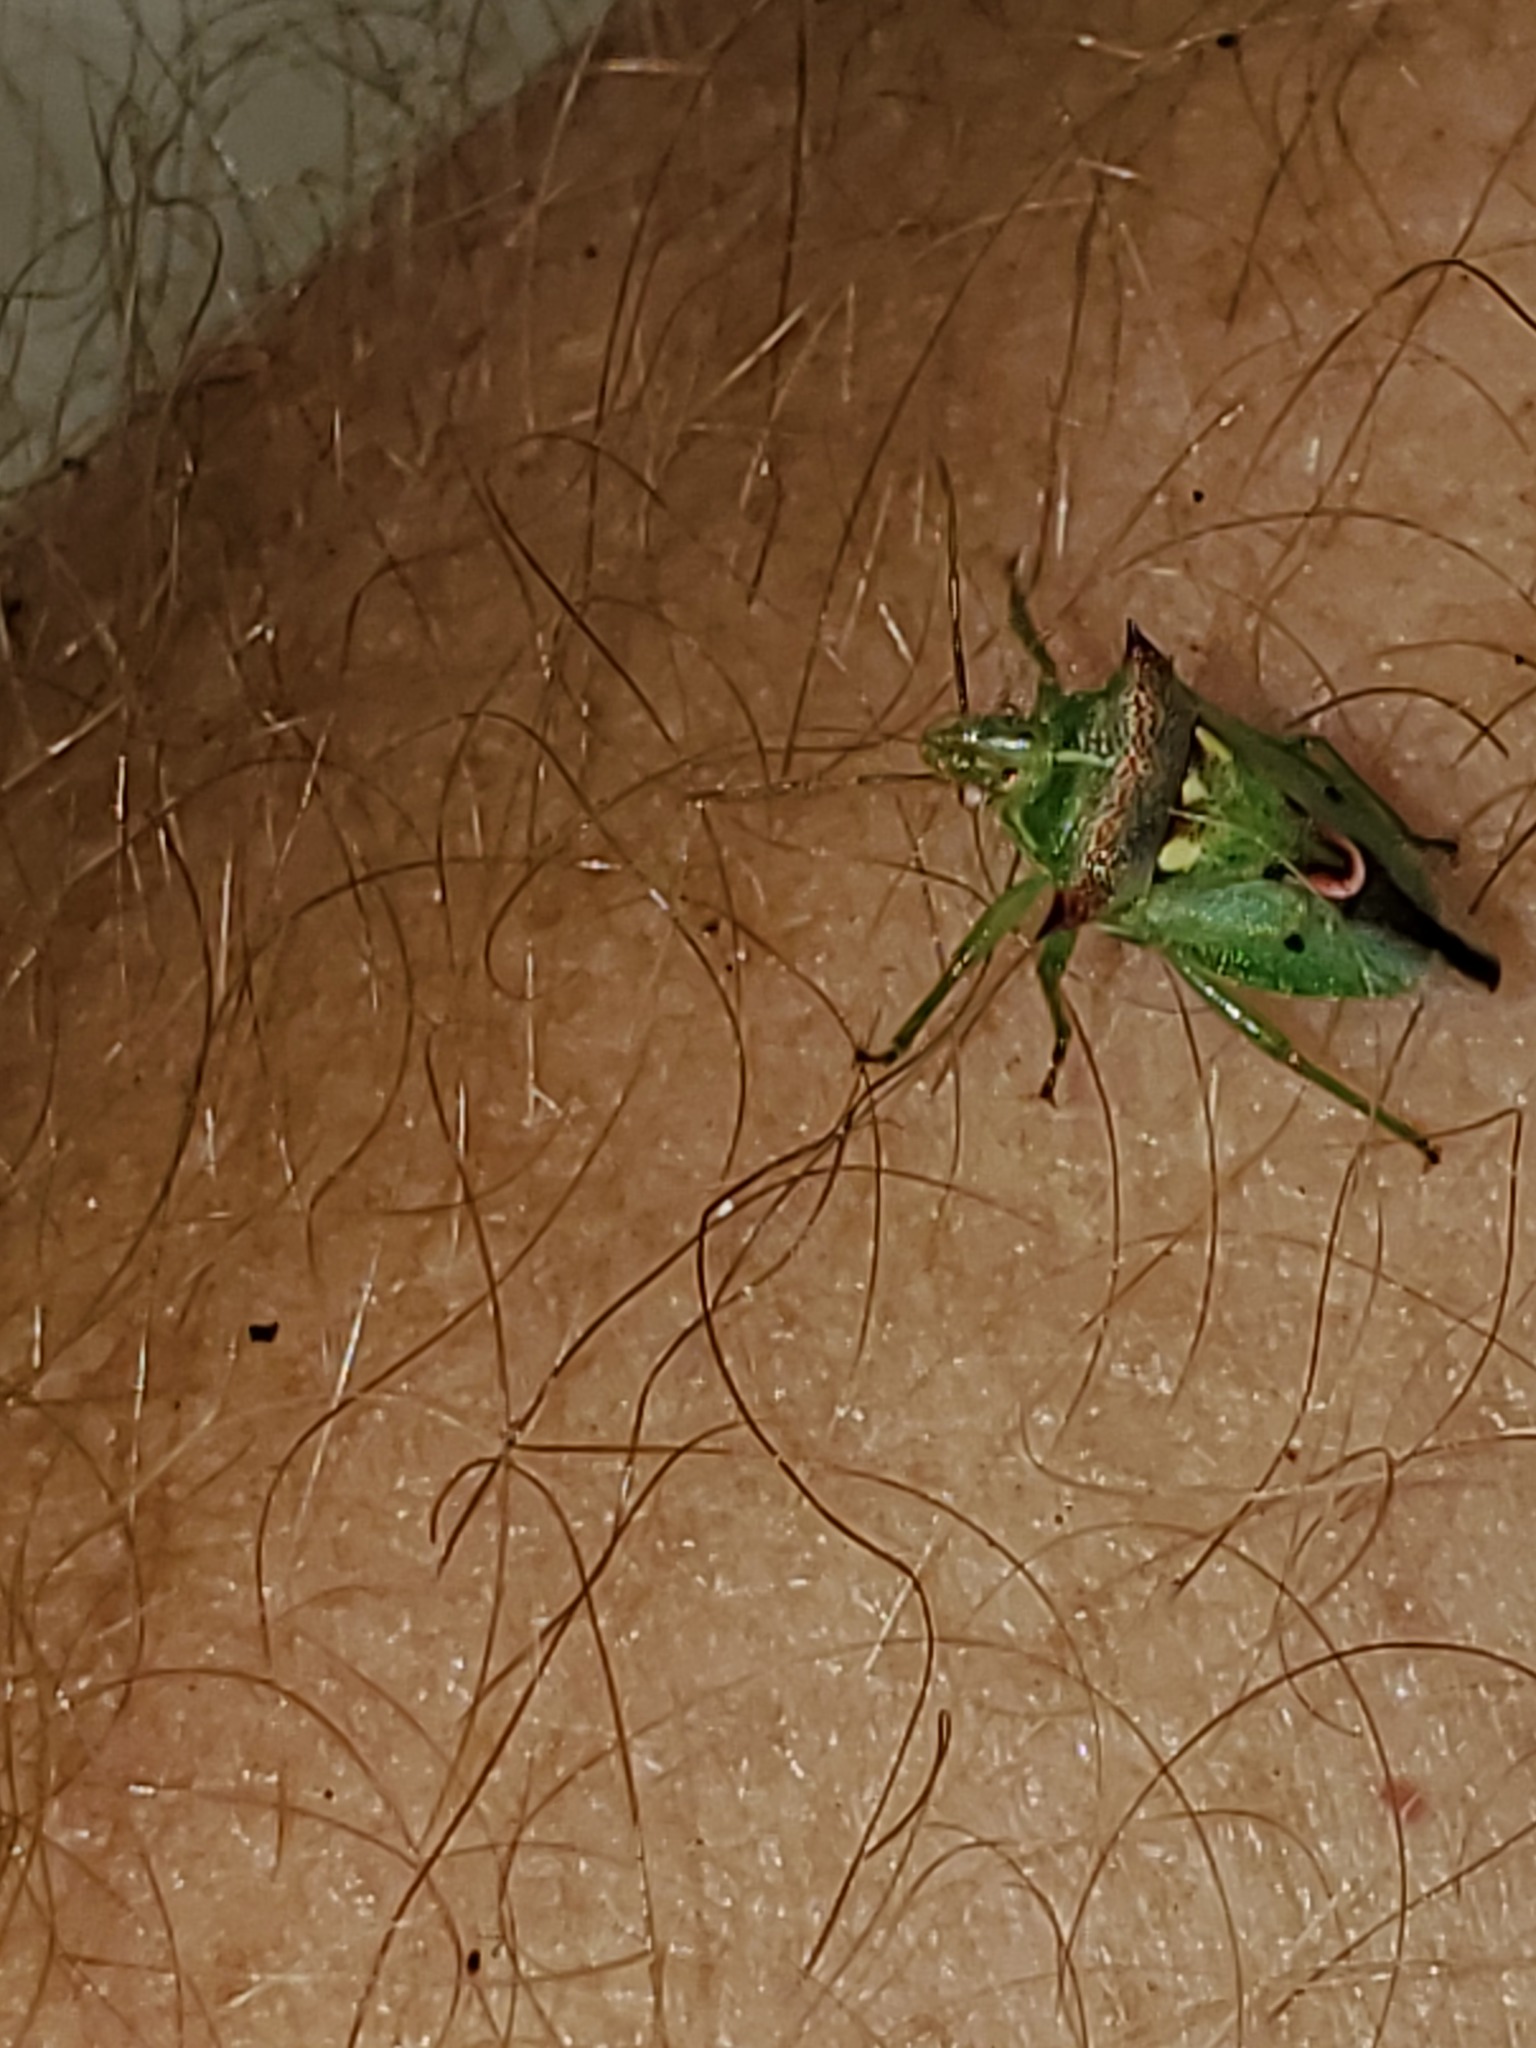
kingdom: Animalia
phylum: Arthropoda
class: Insecta
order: Hemiptera
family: Pentatomidae
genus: Tylospilus
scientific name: Tylospilus acutissimus
